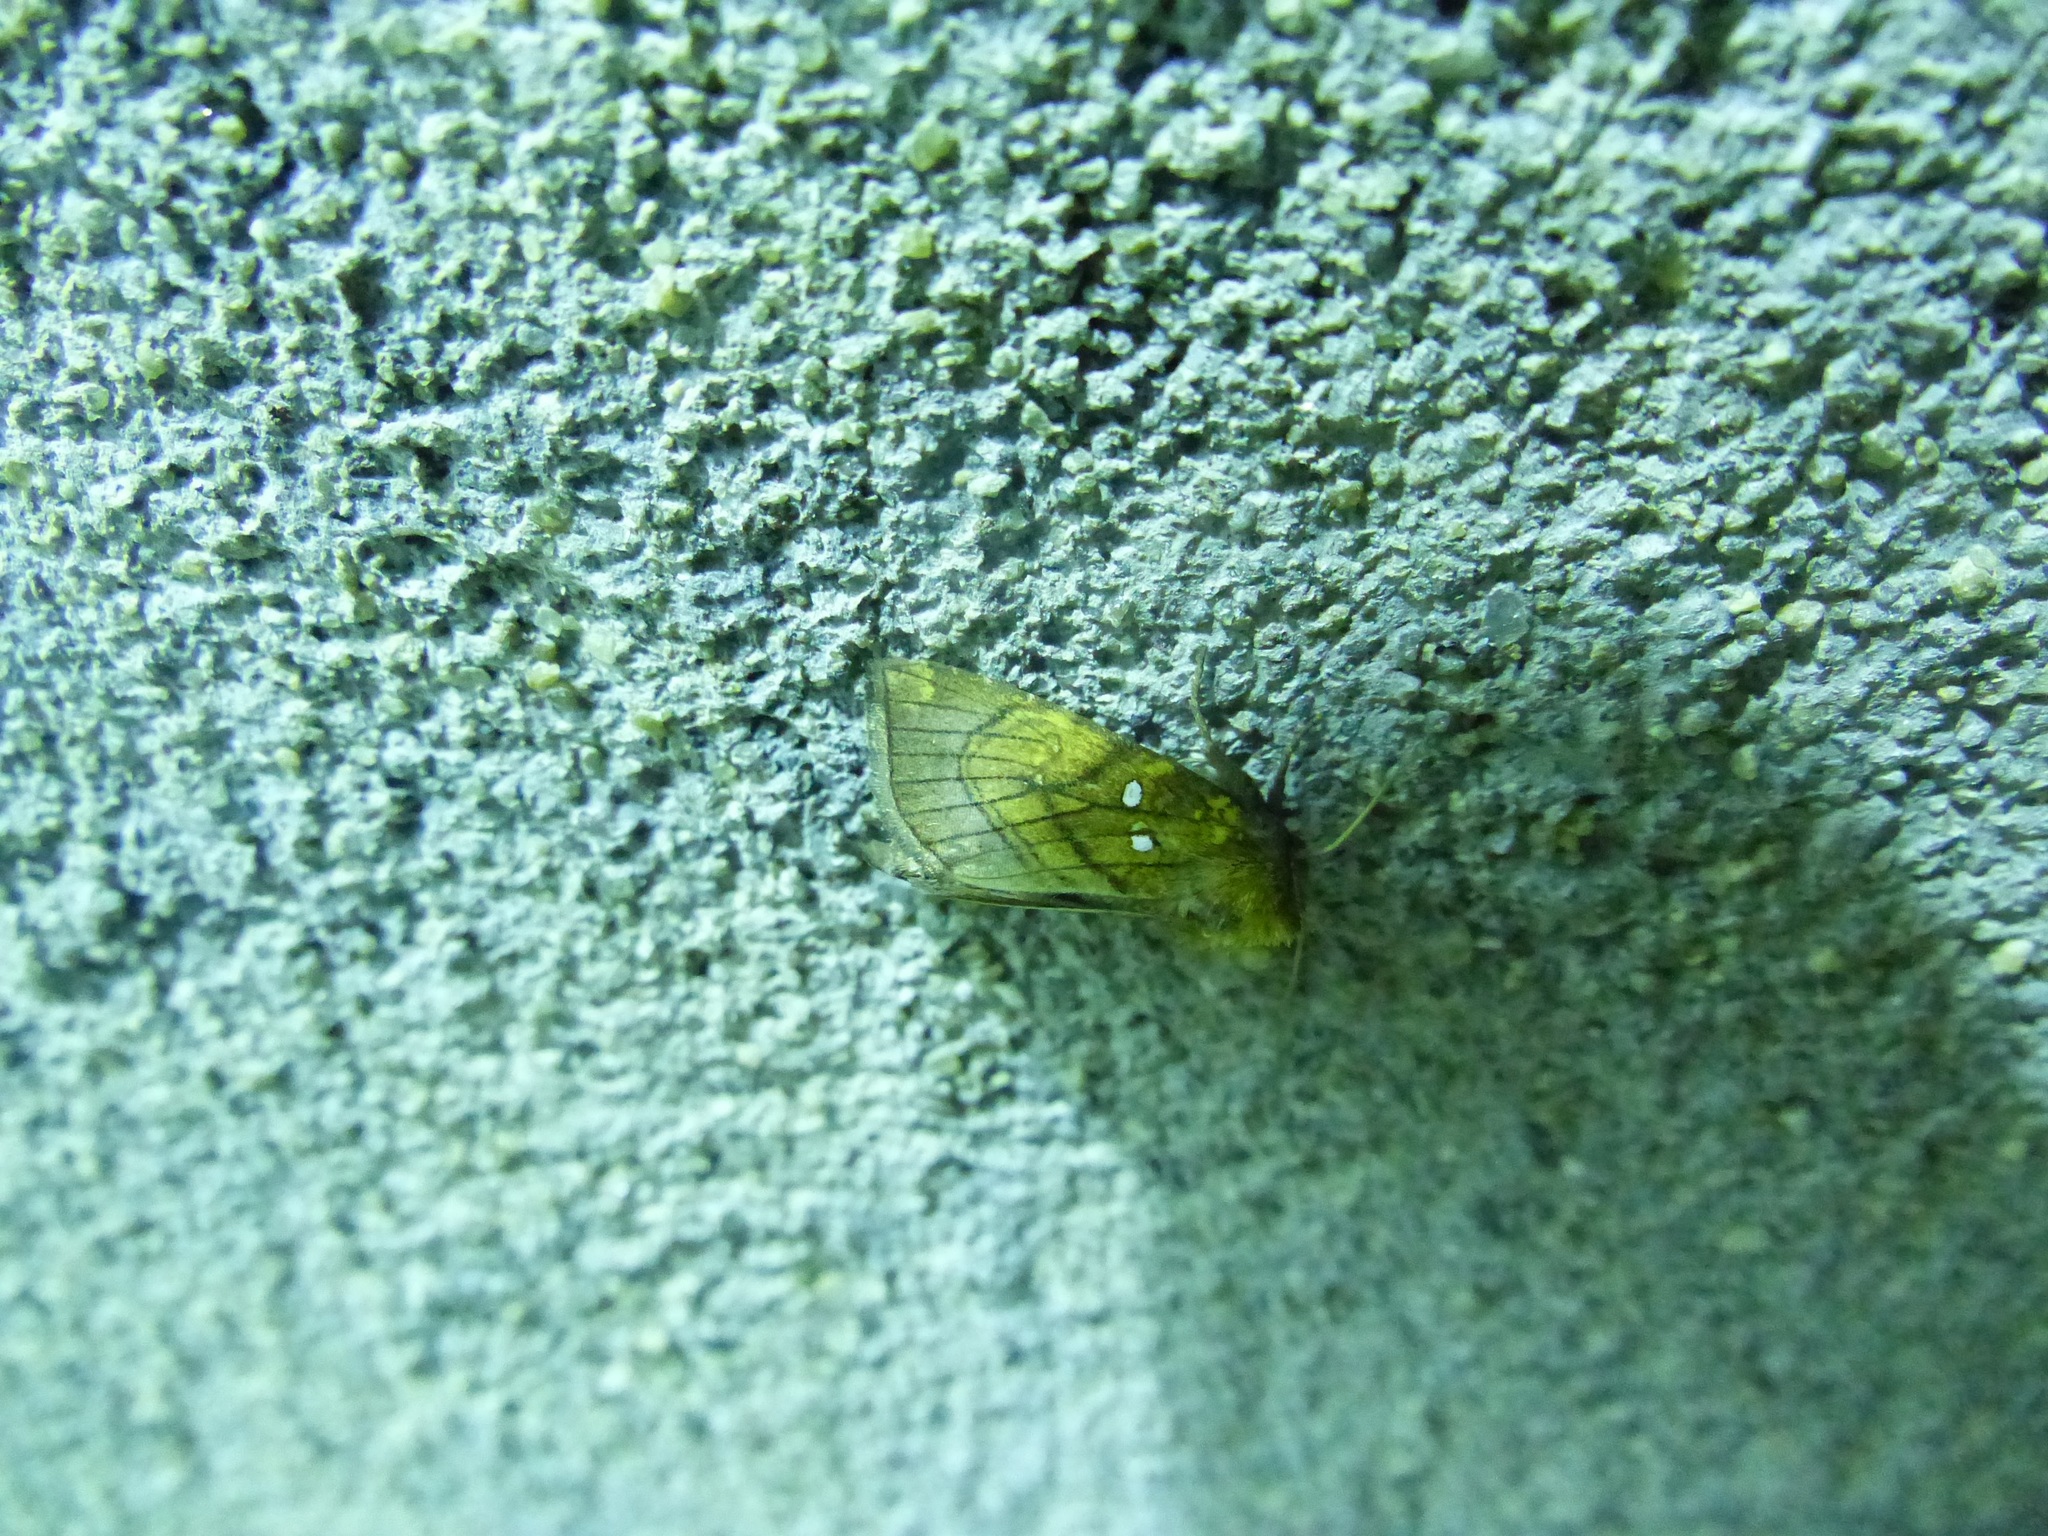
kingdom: Animalia
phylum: Arthropoda
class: Insecta
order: Lepidoptera
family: Noctuidae
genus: Papaipema
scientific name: Papaipema inquaesita
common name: Sensitive fern borer moth
